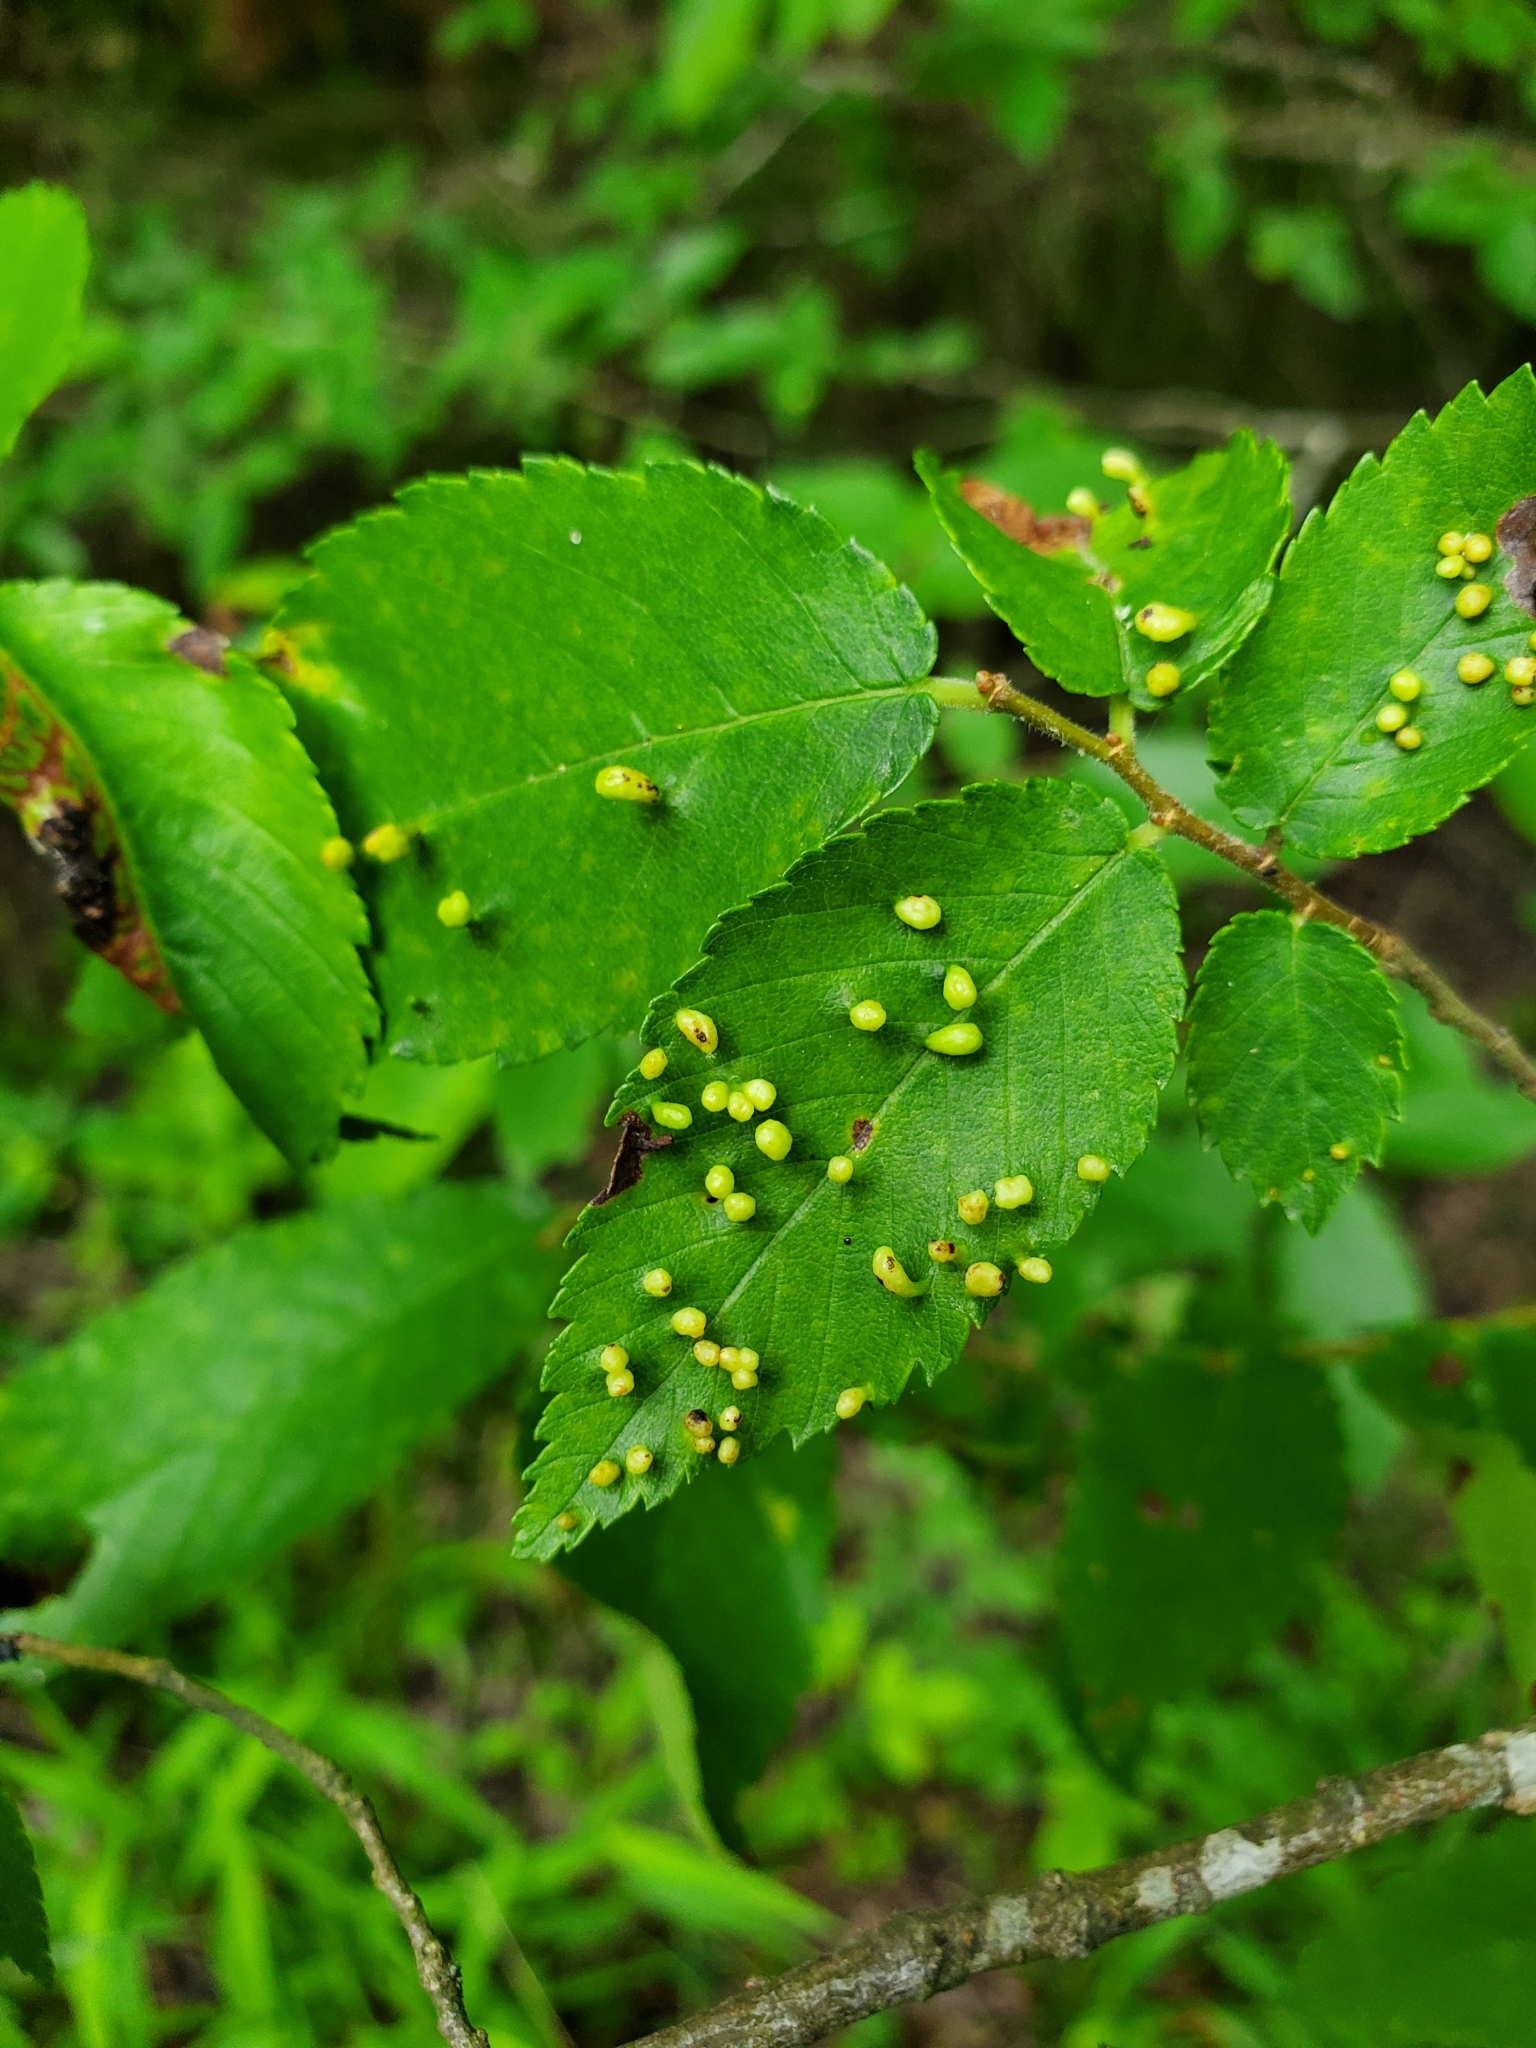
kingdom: Animalia
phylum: Arthropoda
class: Arachnida
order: Trombidiformes
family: Eriophyidae
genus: Aceria
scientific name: Aceria
